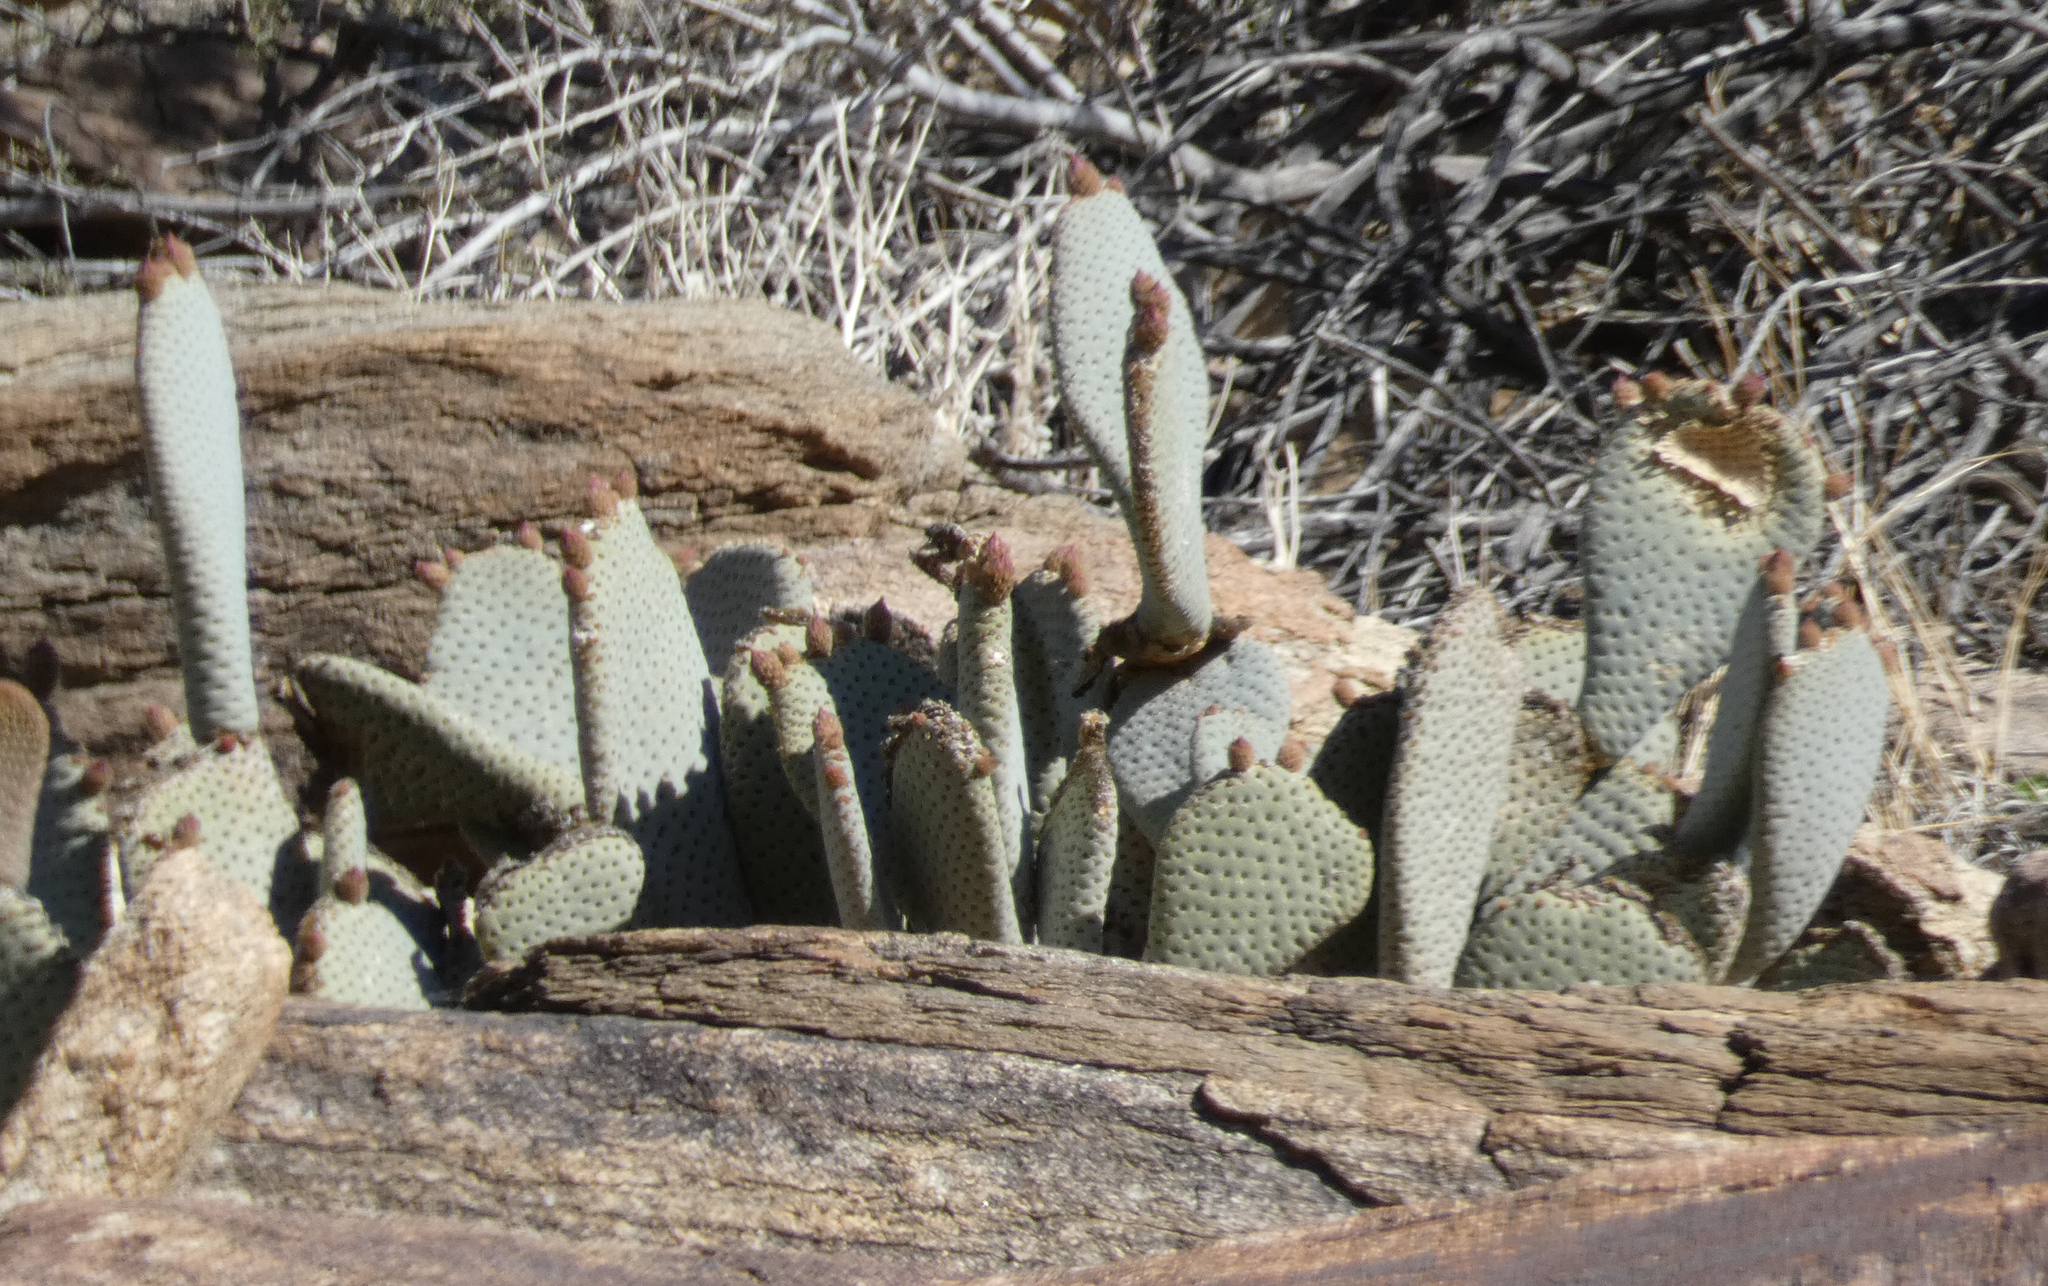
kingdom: Plantae
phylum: Tracheophyta
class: Magnoliopsida
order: Caryophyllales
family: Cactaceae
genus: Opuntia
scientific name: Opuntia basilaris
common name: Beavertail prickly-pear
